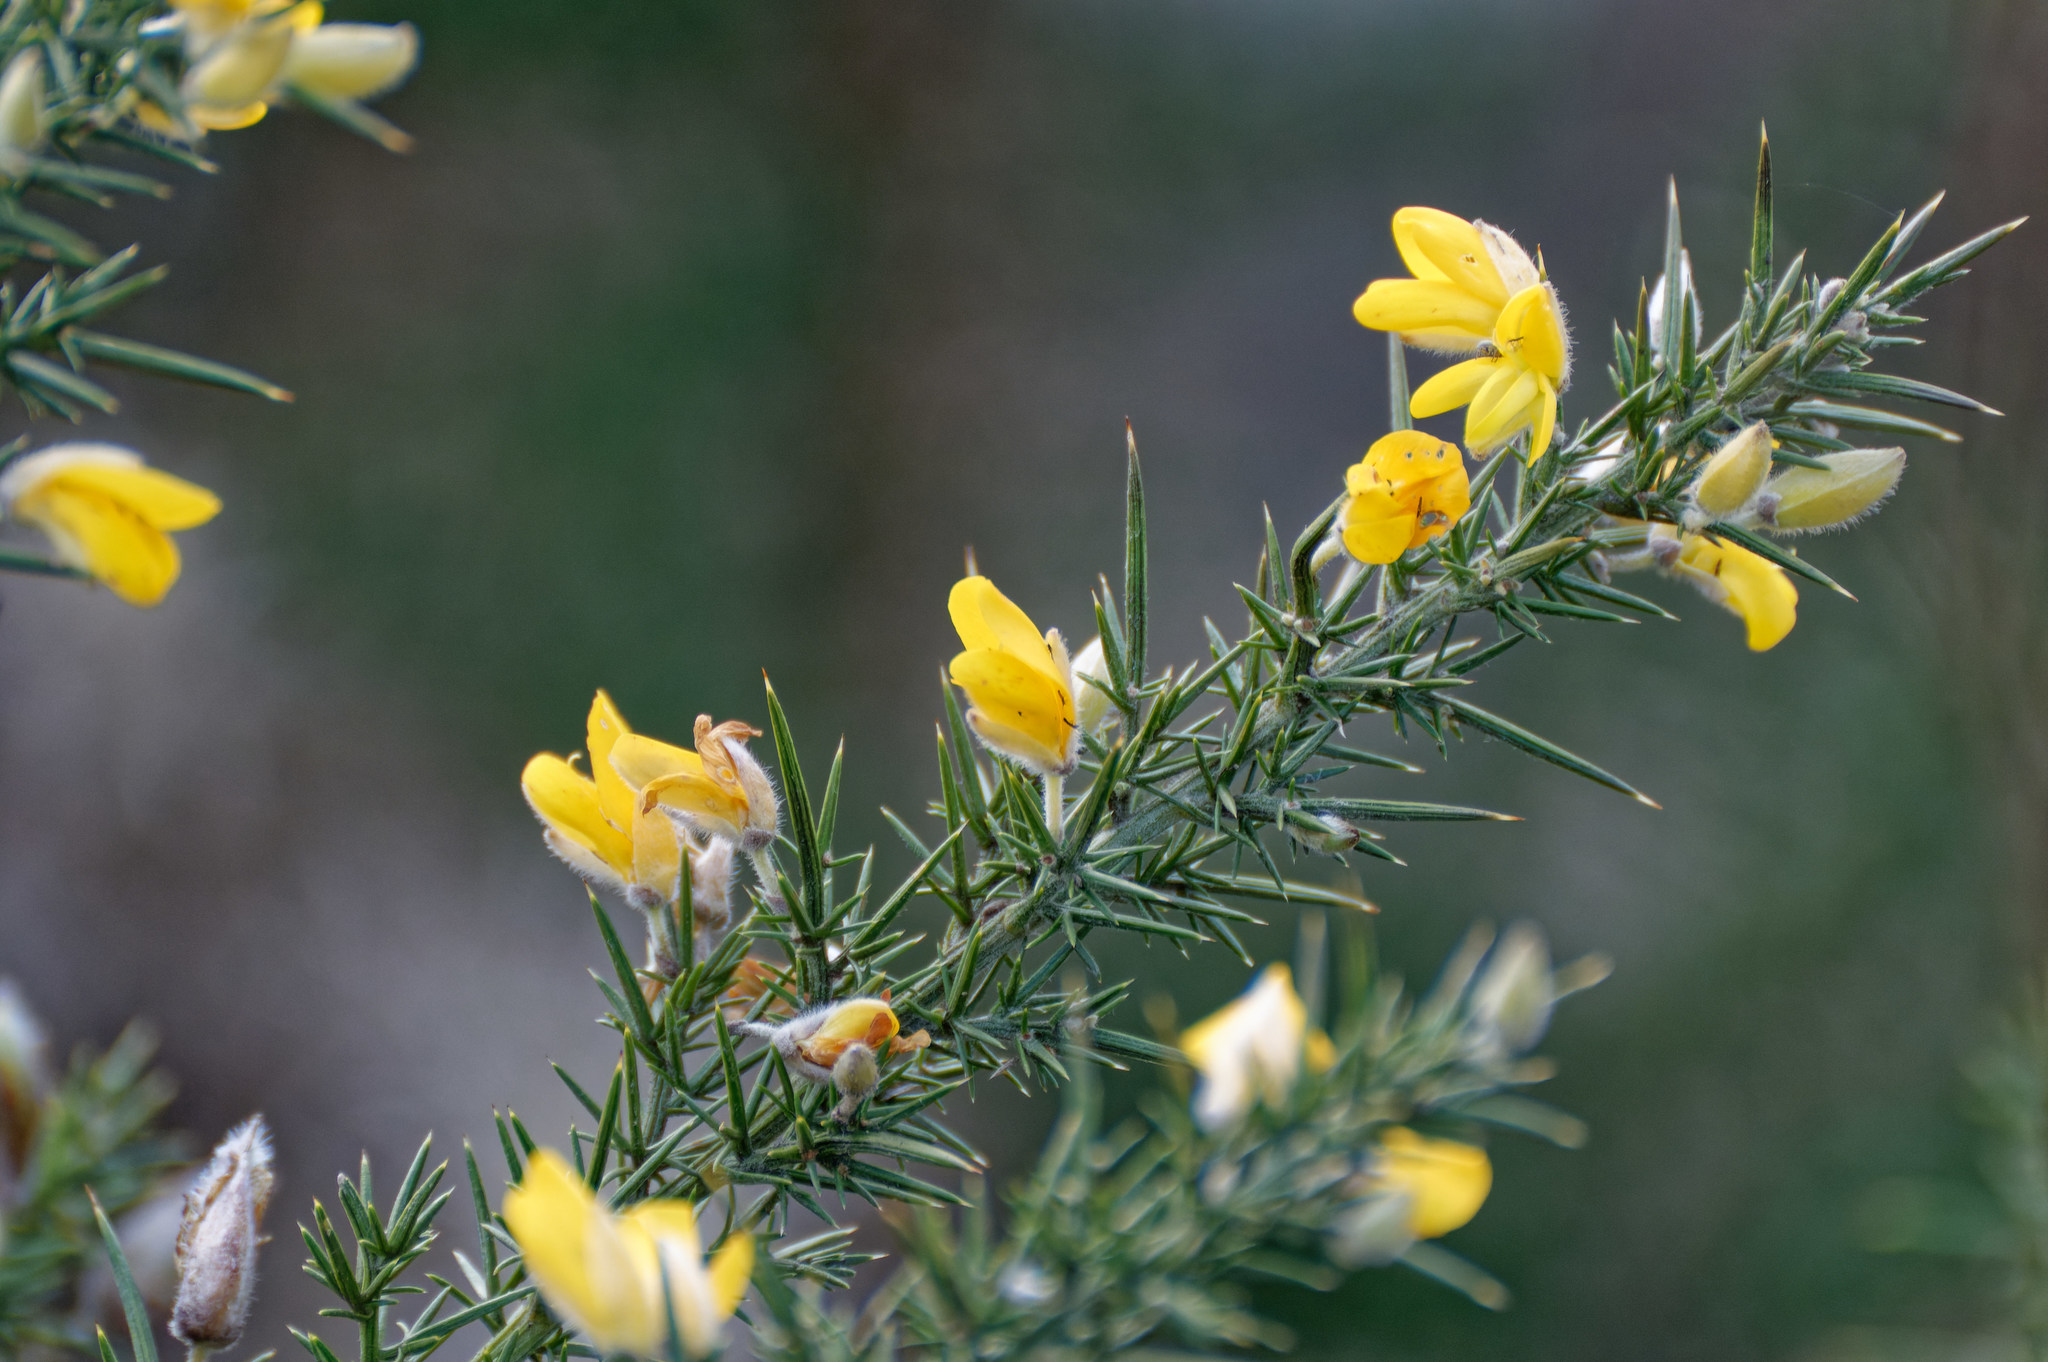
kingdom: Plantae
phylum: Tracheophyta
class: Magnoliopsida
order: Fabales
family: Fabaceae
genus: Ulex
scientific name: Ulex europaeus
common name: Common gorse
